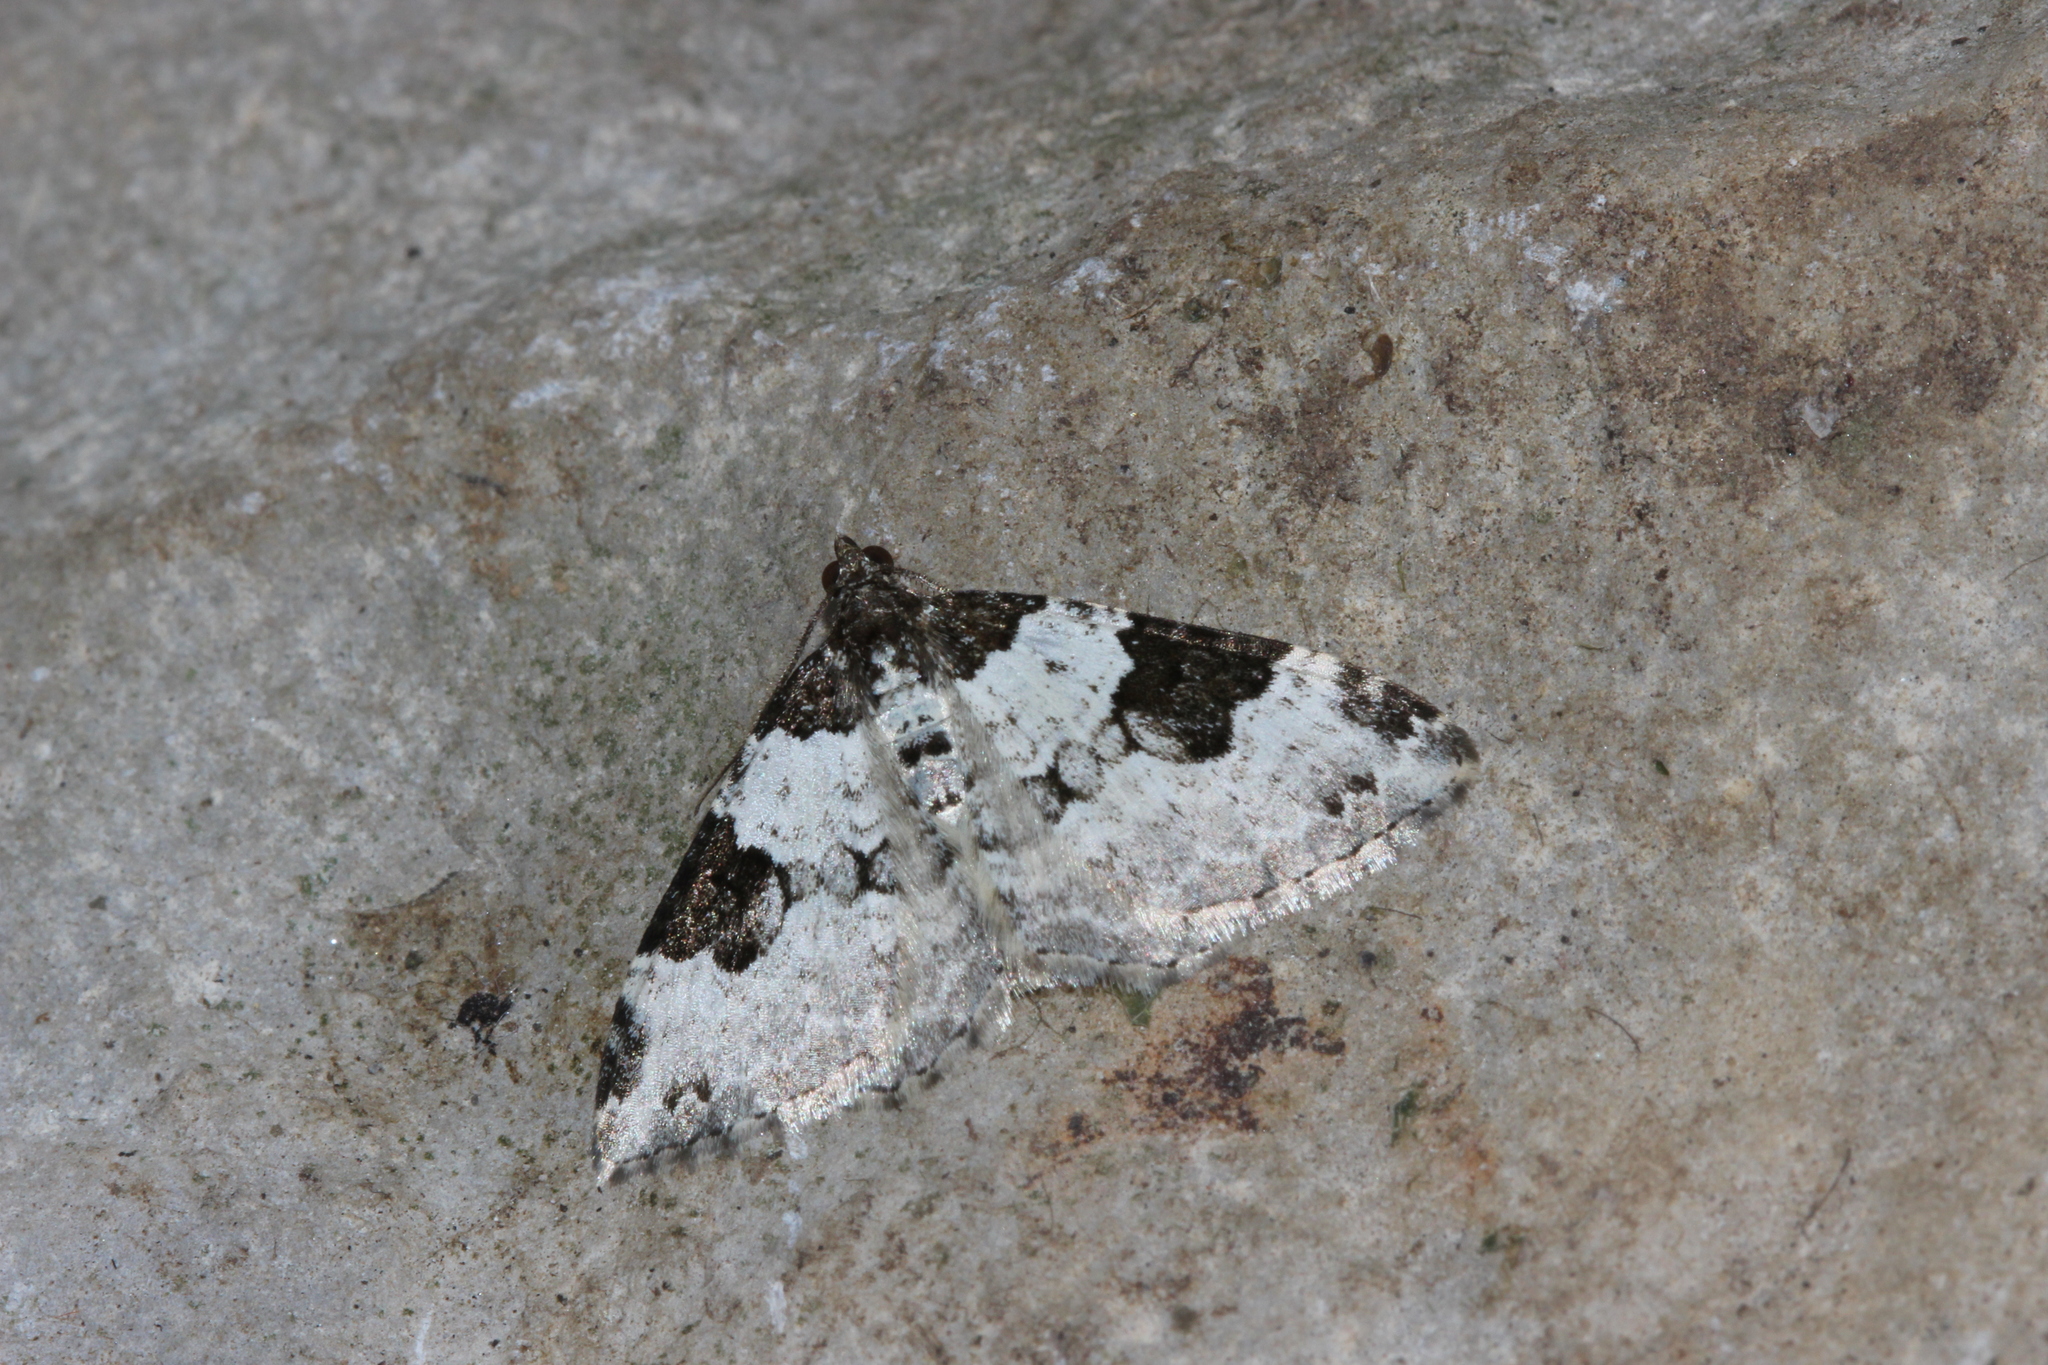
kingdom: Animalia
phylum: Arthropoda
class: Insecta
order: Lepidoptera
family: Geometridae
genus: Xanthorhoe
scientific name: Xanthorhoe fluctuata
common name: Garden carpet
